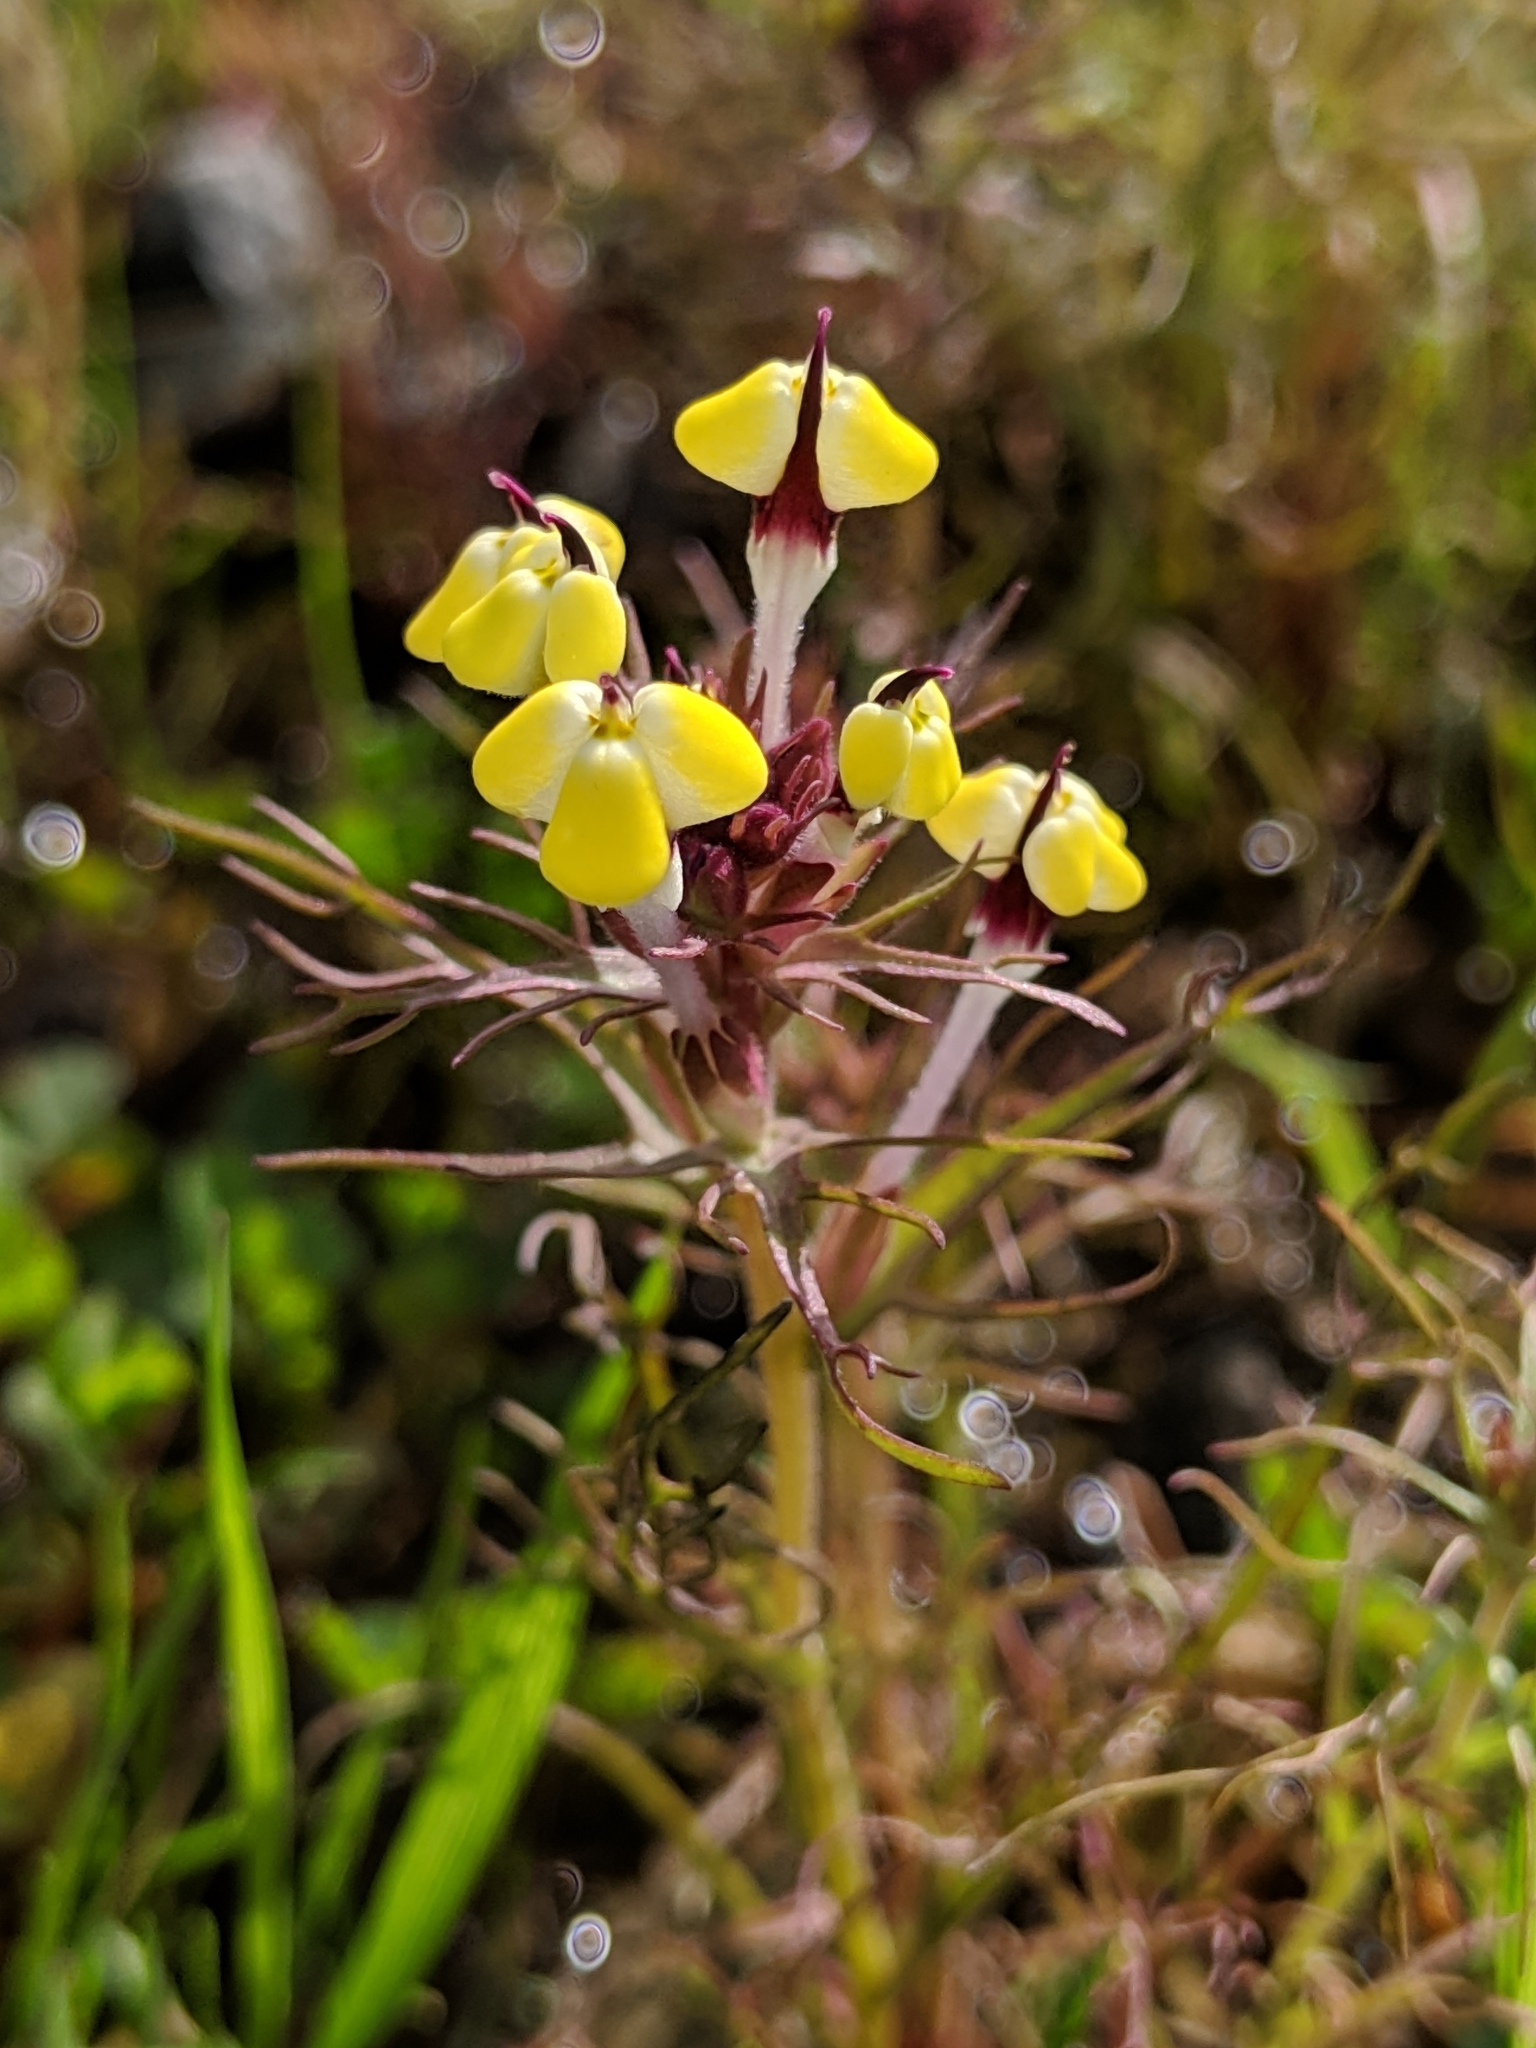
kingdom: Plantae
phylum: Tracheophyta
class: Magnoliopsida
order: Lamiales
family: Orobanchaceae
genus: Triphysaria
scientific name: Triphysaria eriantha
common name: Johnny-tuck
